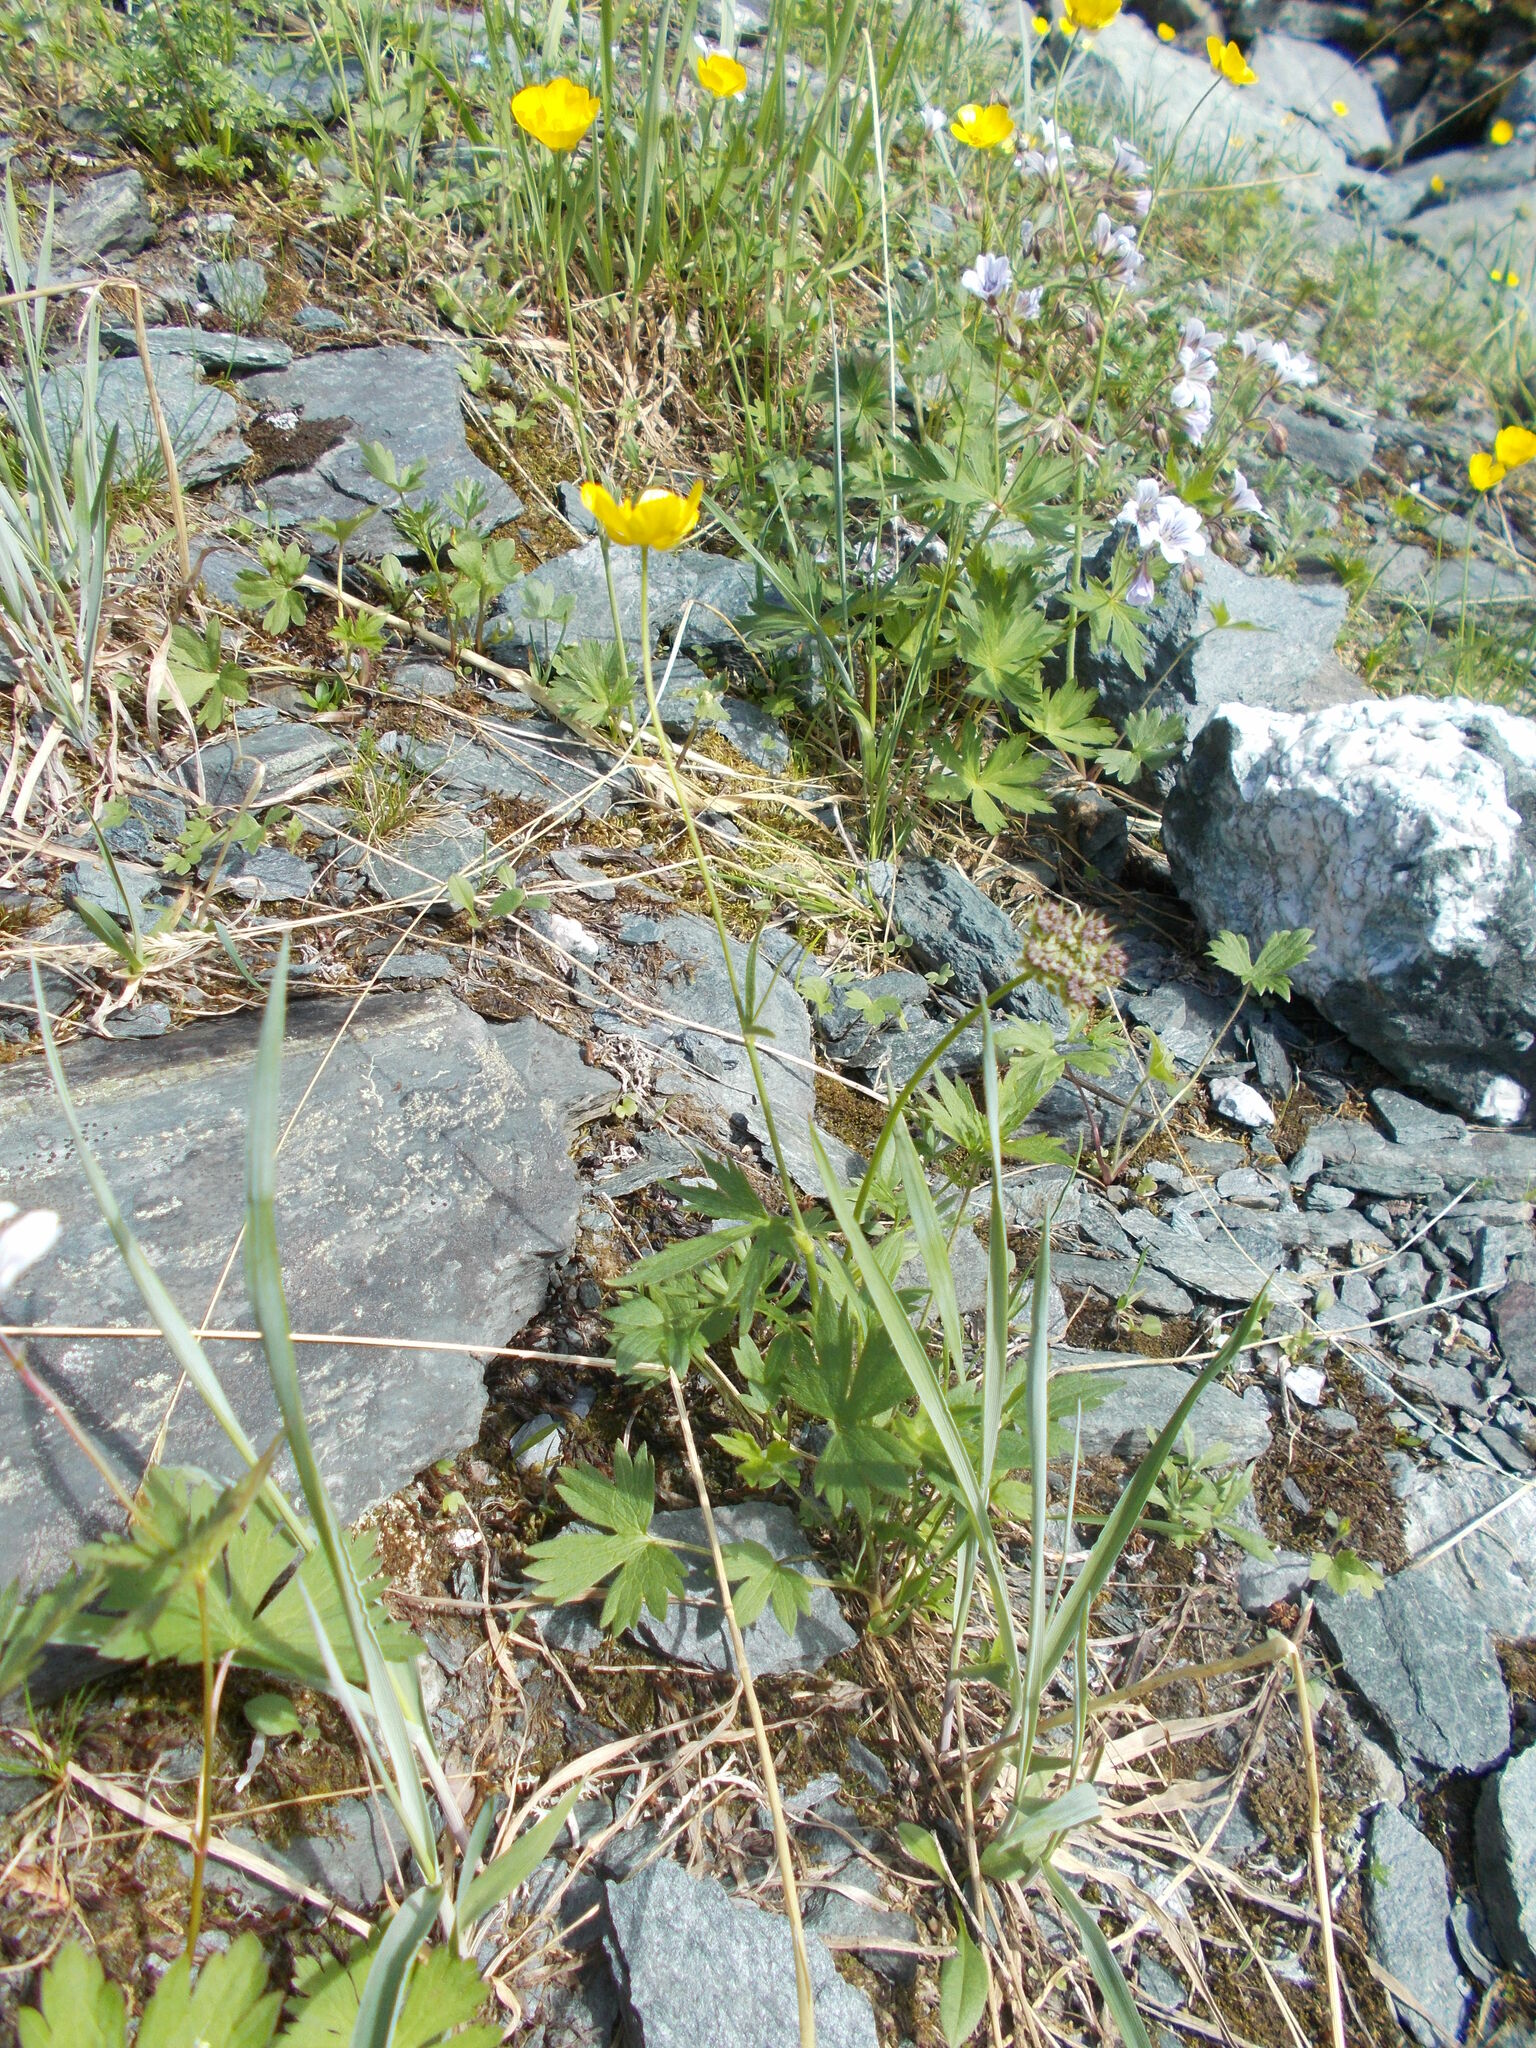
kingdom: Plantae
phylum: Tracheophyta
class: Magnoliopsida
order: Ranunculales
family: Ranunculaceae
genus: Ranunculus
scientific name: Ranunculus propinquus
